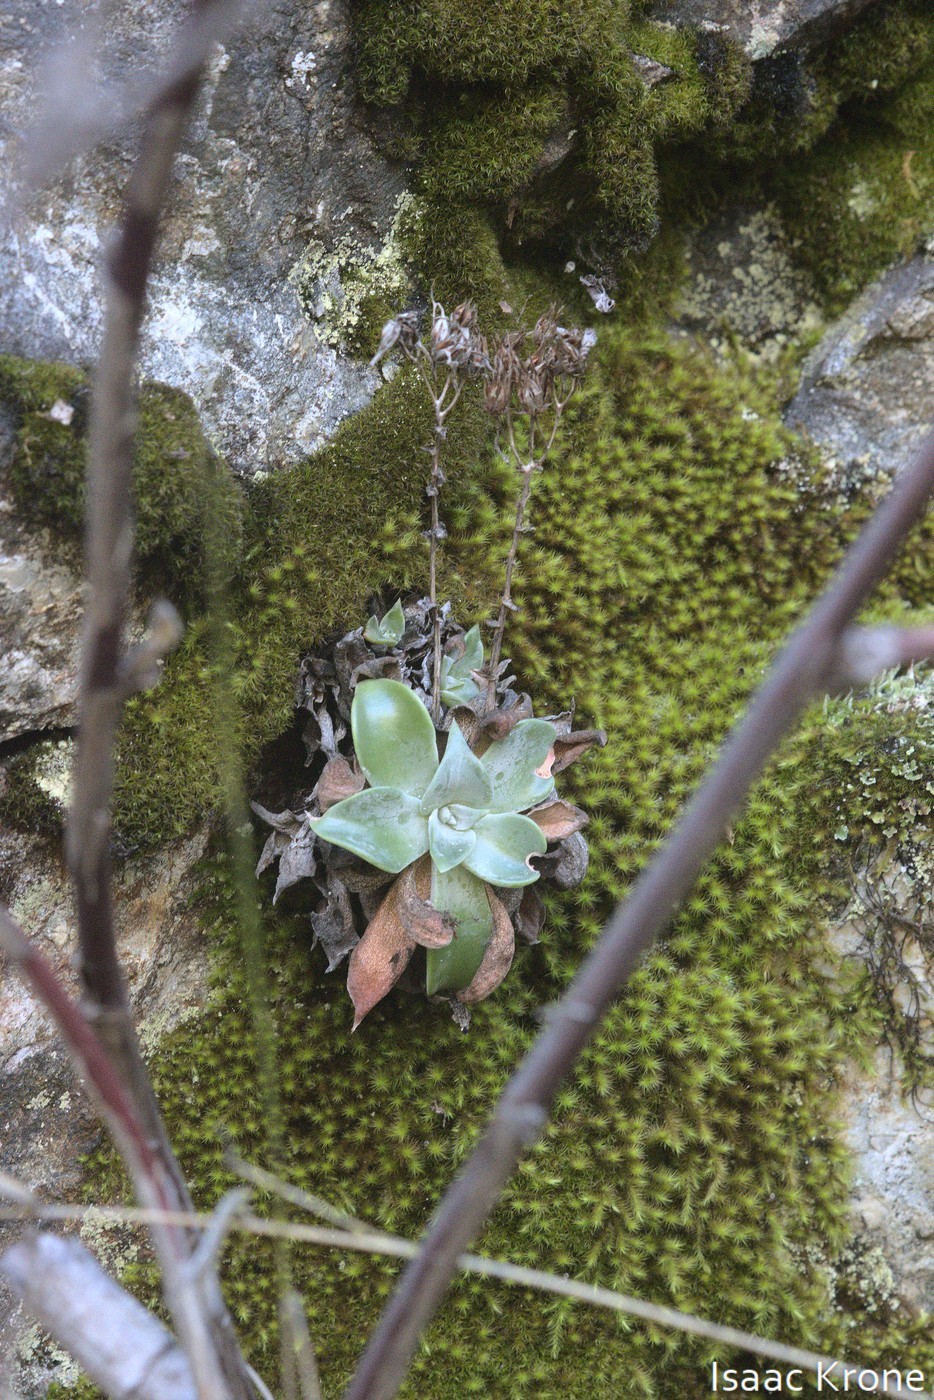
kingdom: Plantae
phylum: Tracheophyta
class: Magnoliopsida
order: Saxifragales
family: Crassulaceae
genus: Dudleya
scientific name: Dudleya cymosa
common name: Canyon dudleya
